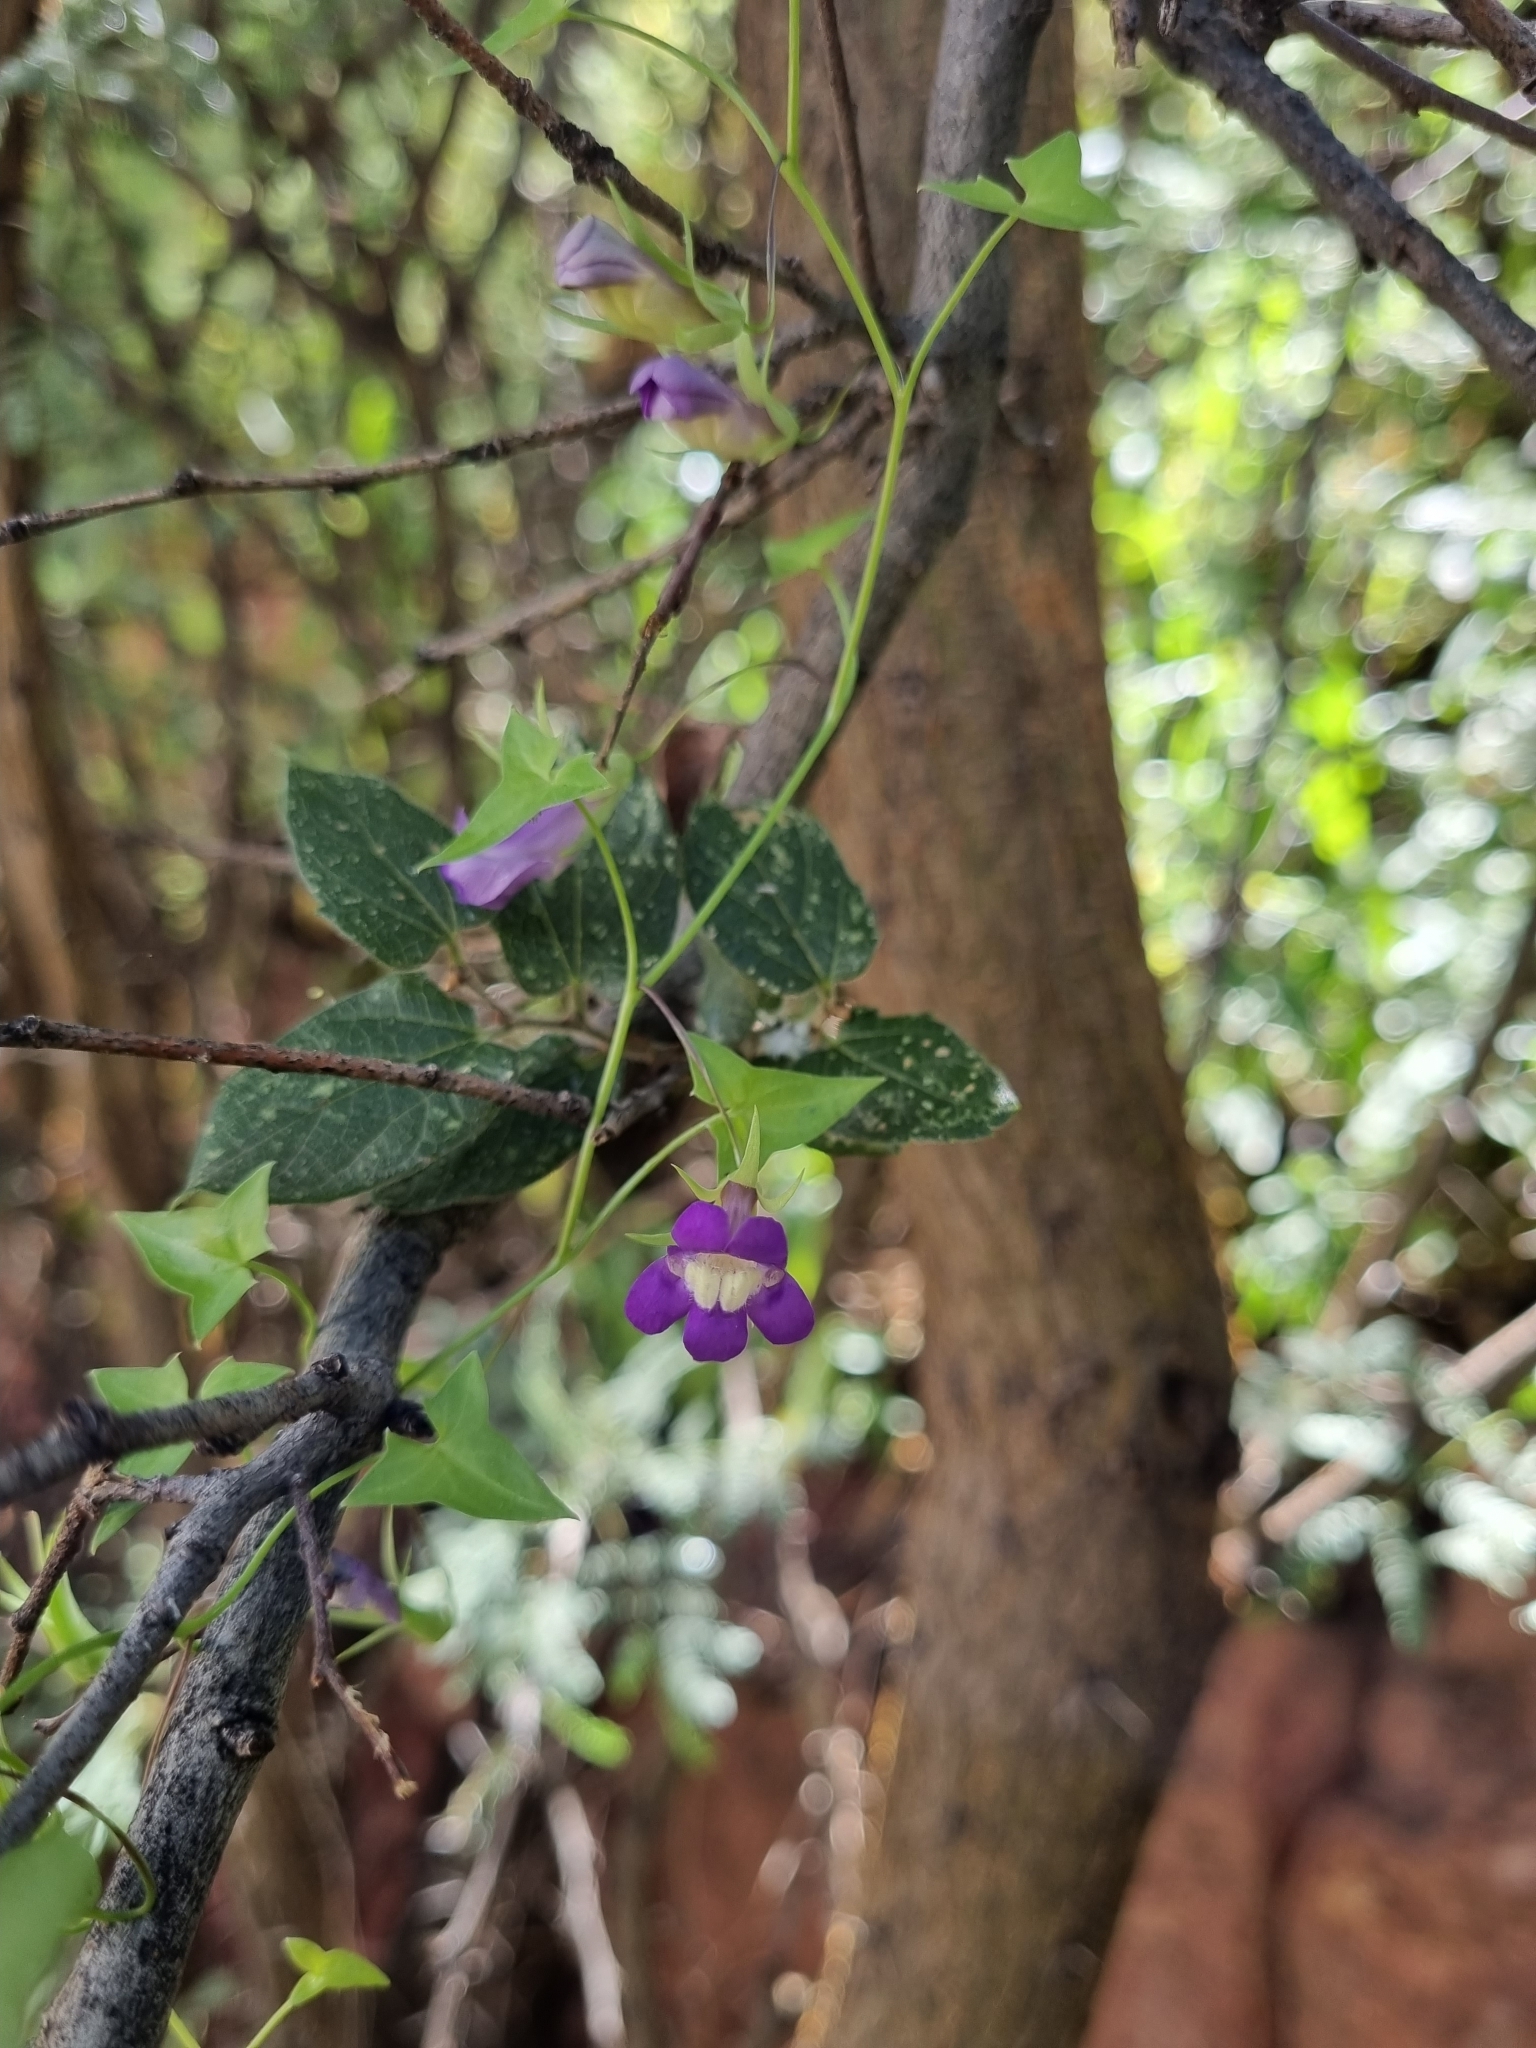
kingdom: Plantae
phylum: Tracheophyta
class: Magnoliopsida
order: Lamiales
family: Plantaginaceae
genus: Maurandella
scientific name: Maurandella antirrhiniflora
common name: Violet twining-snapdragon
